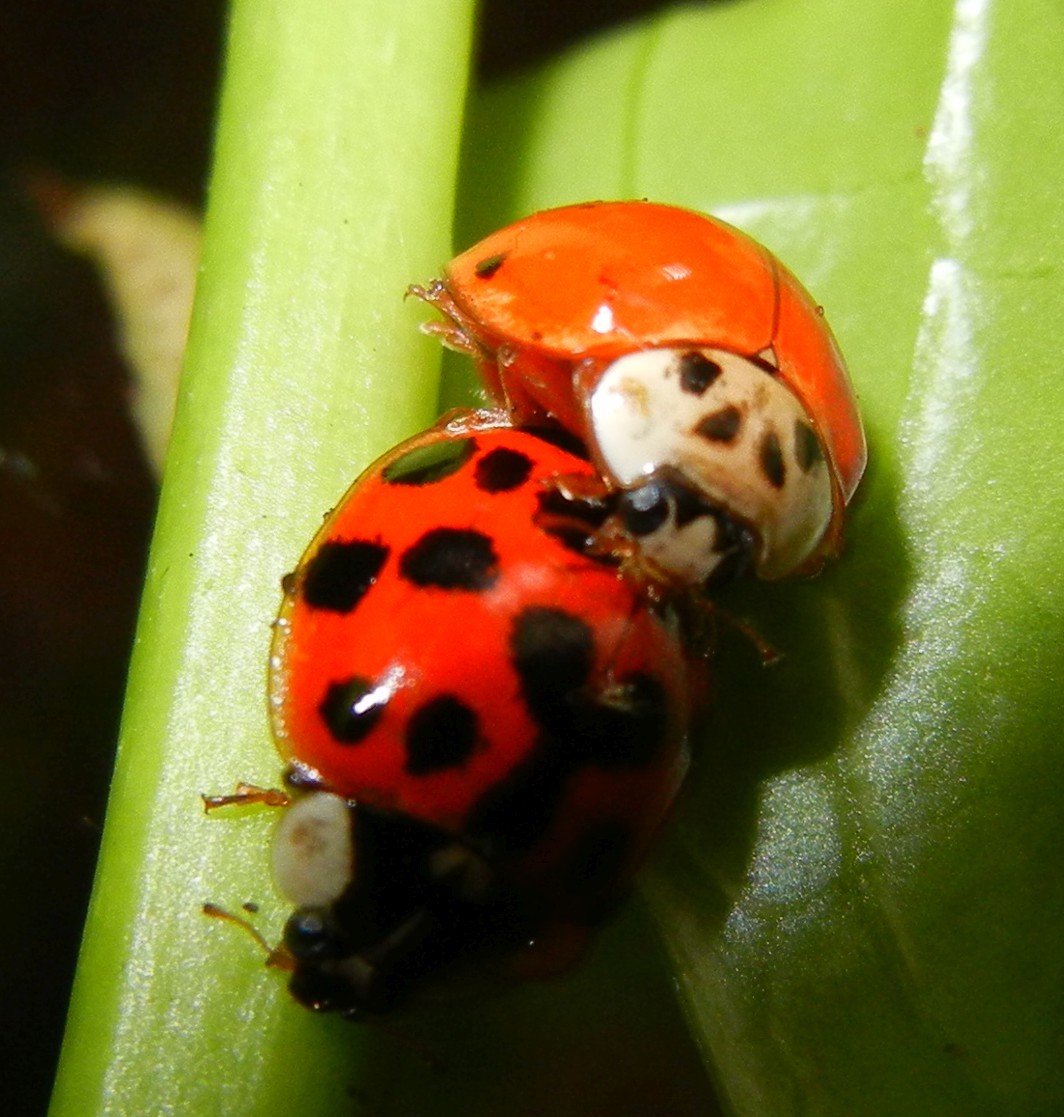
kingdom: Animalia
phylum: Arthropoda
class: Insecta
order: Coleoptera
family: Coccinellidae
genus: Harmonia
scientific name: Harmonia axyridis
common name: Harlequin ladybird
